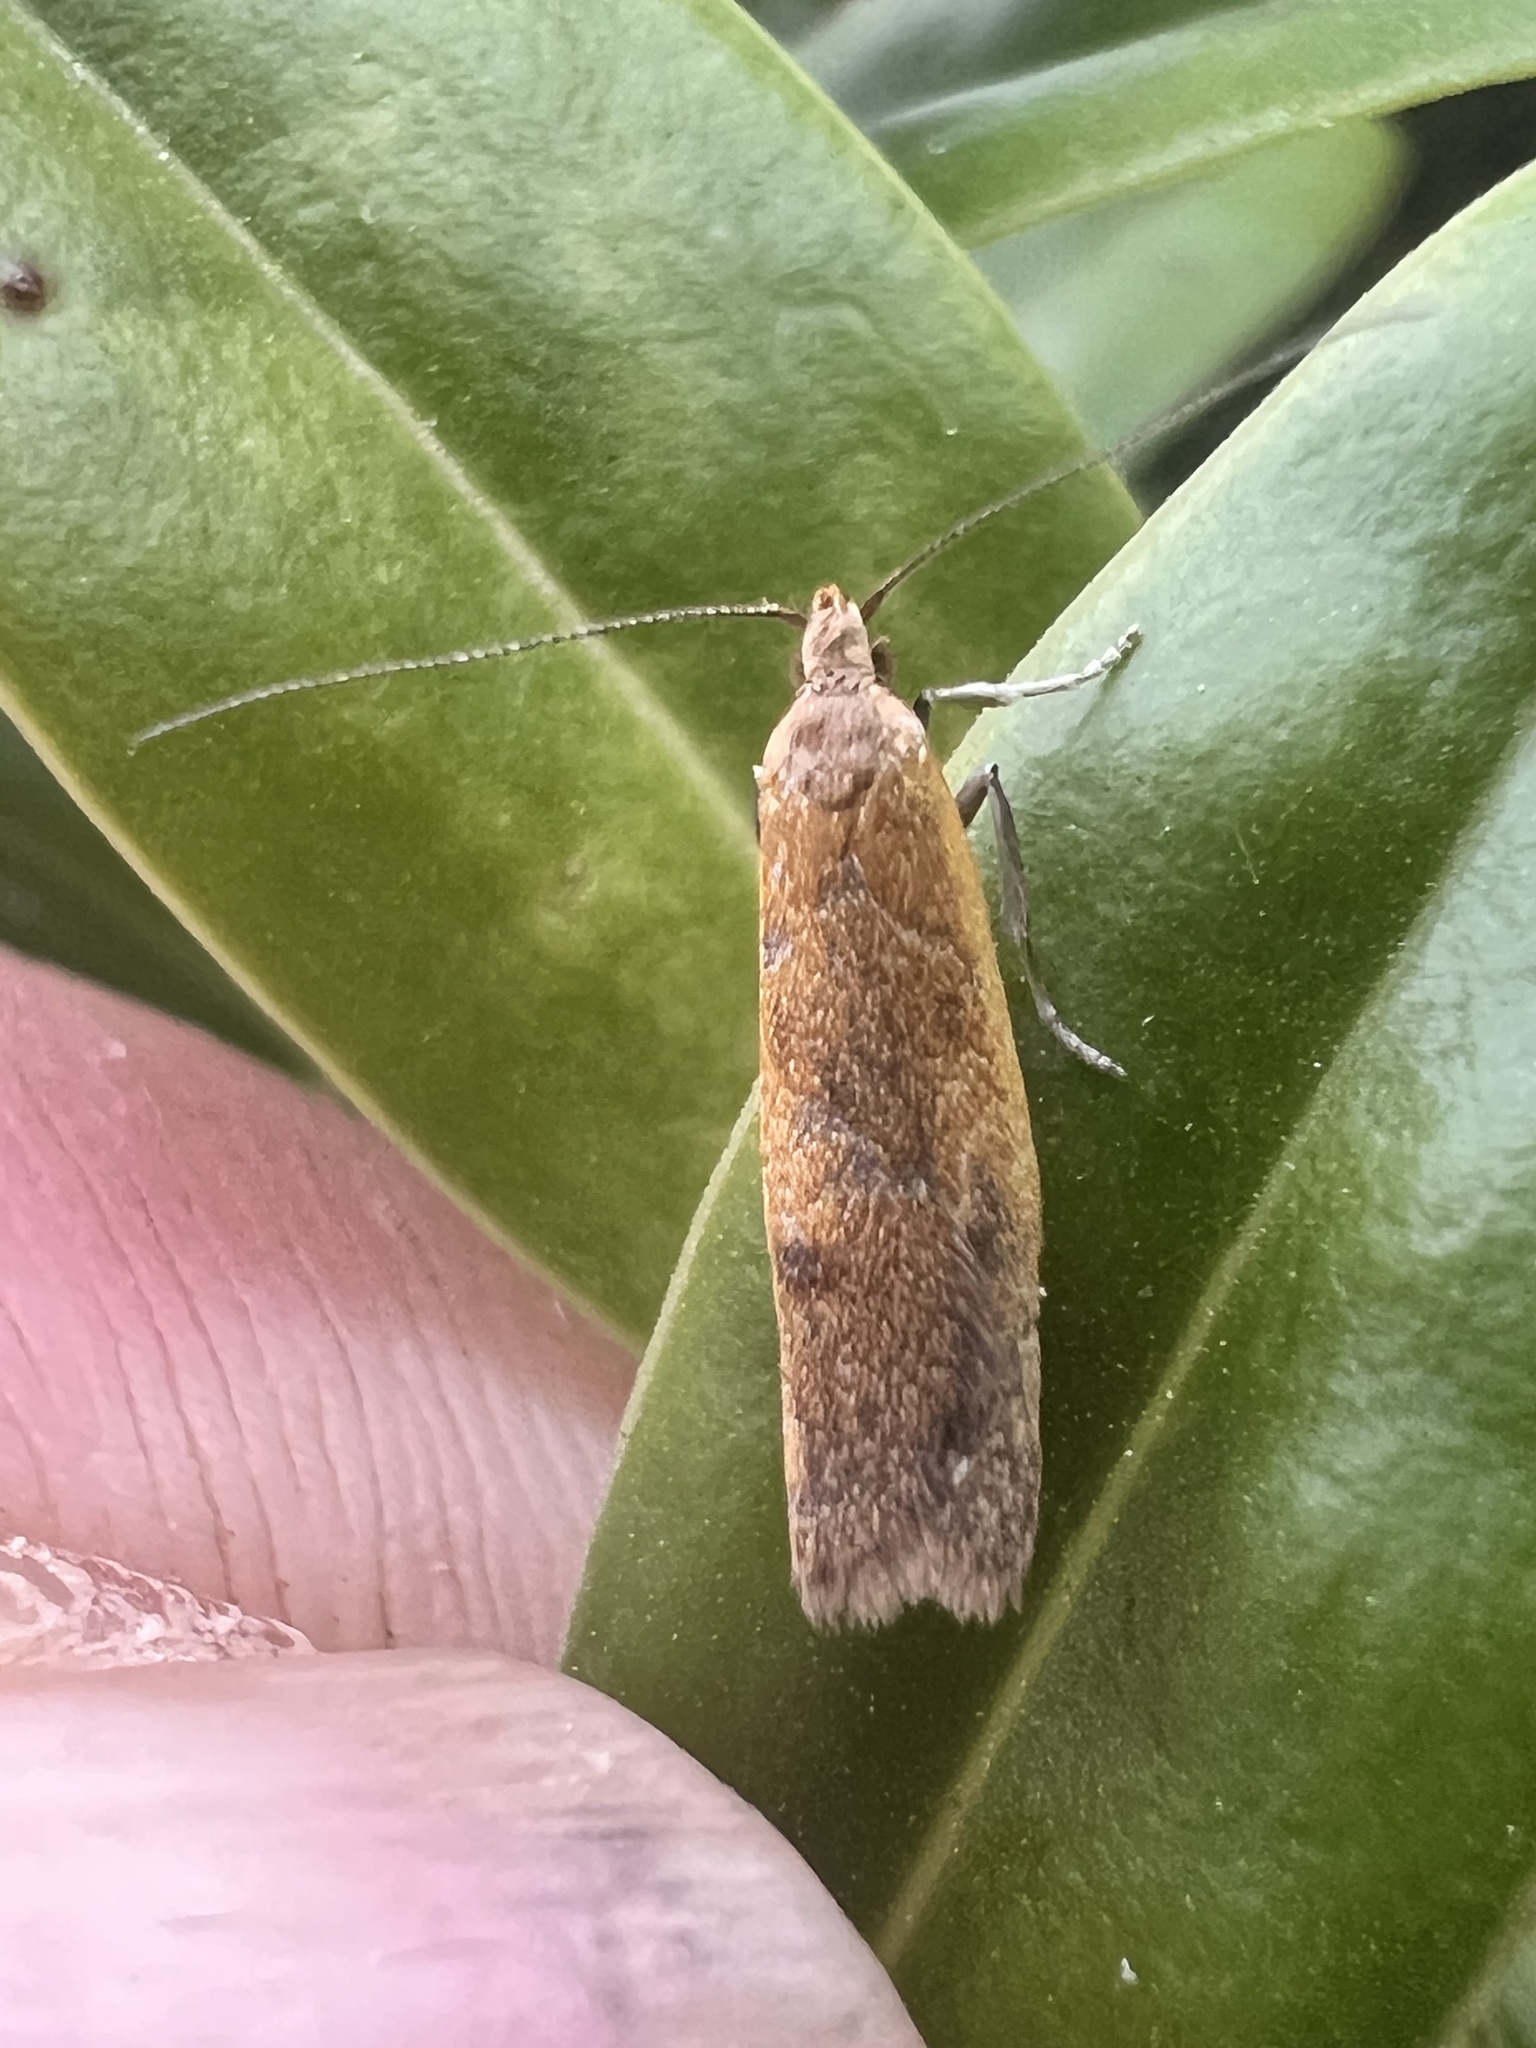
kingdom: Animalia
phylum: Arthropoda
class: Insecta
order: Lepidoptera
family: Oecophoridae
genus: Gymnobathra
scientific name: Gymnobathra parca
